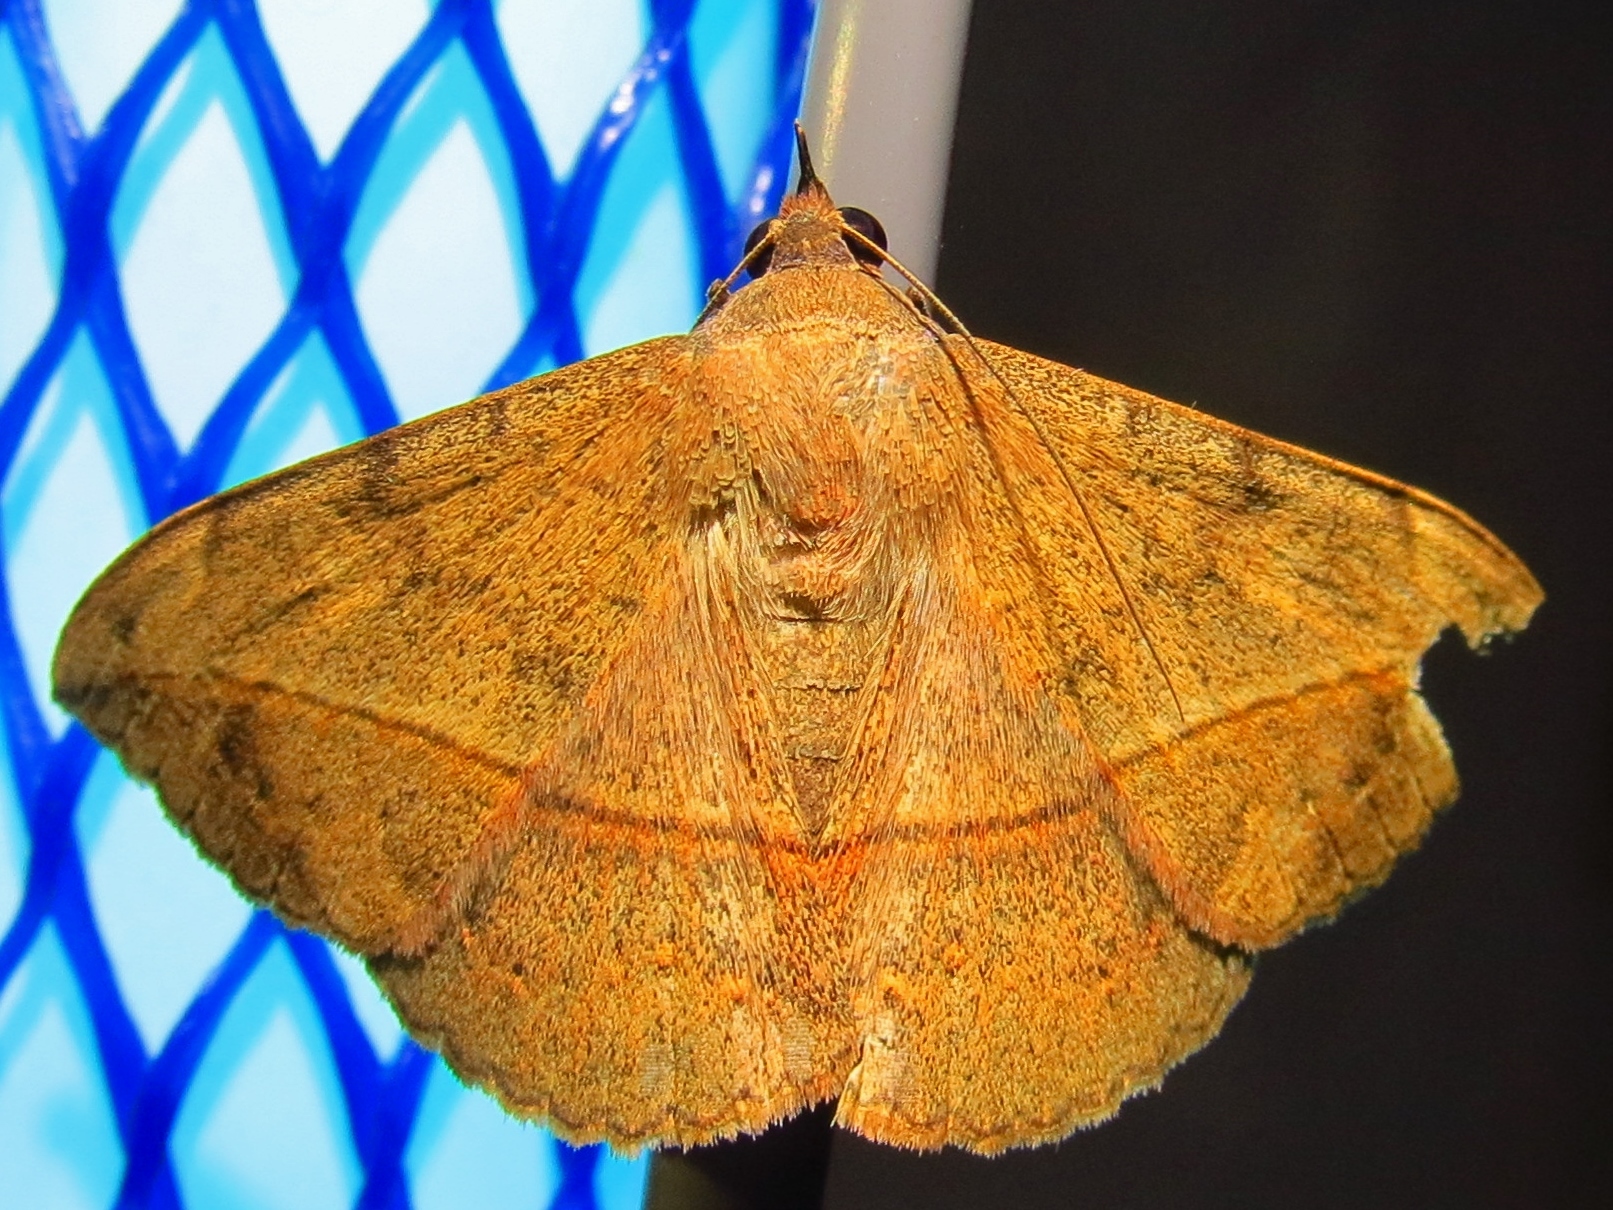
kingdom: Animalia
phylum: Arthropoda
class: Insecta
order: Lepidoptera
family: Erebidae
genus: Anticarsia
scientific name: Anticarsia gemmatalis
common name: Cutworm moth
